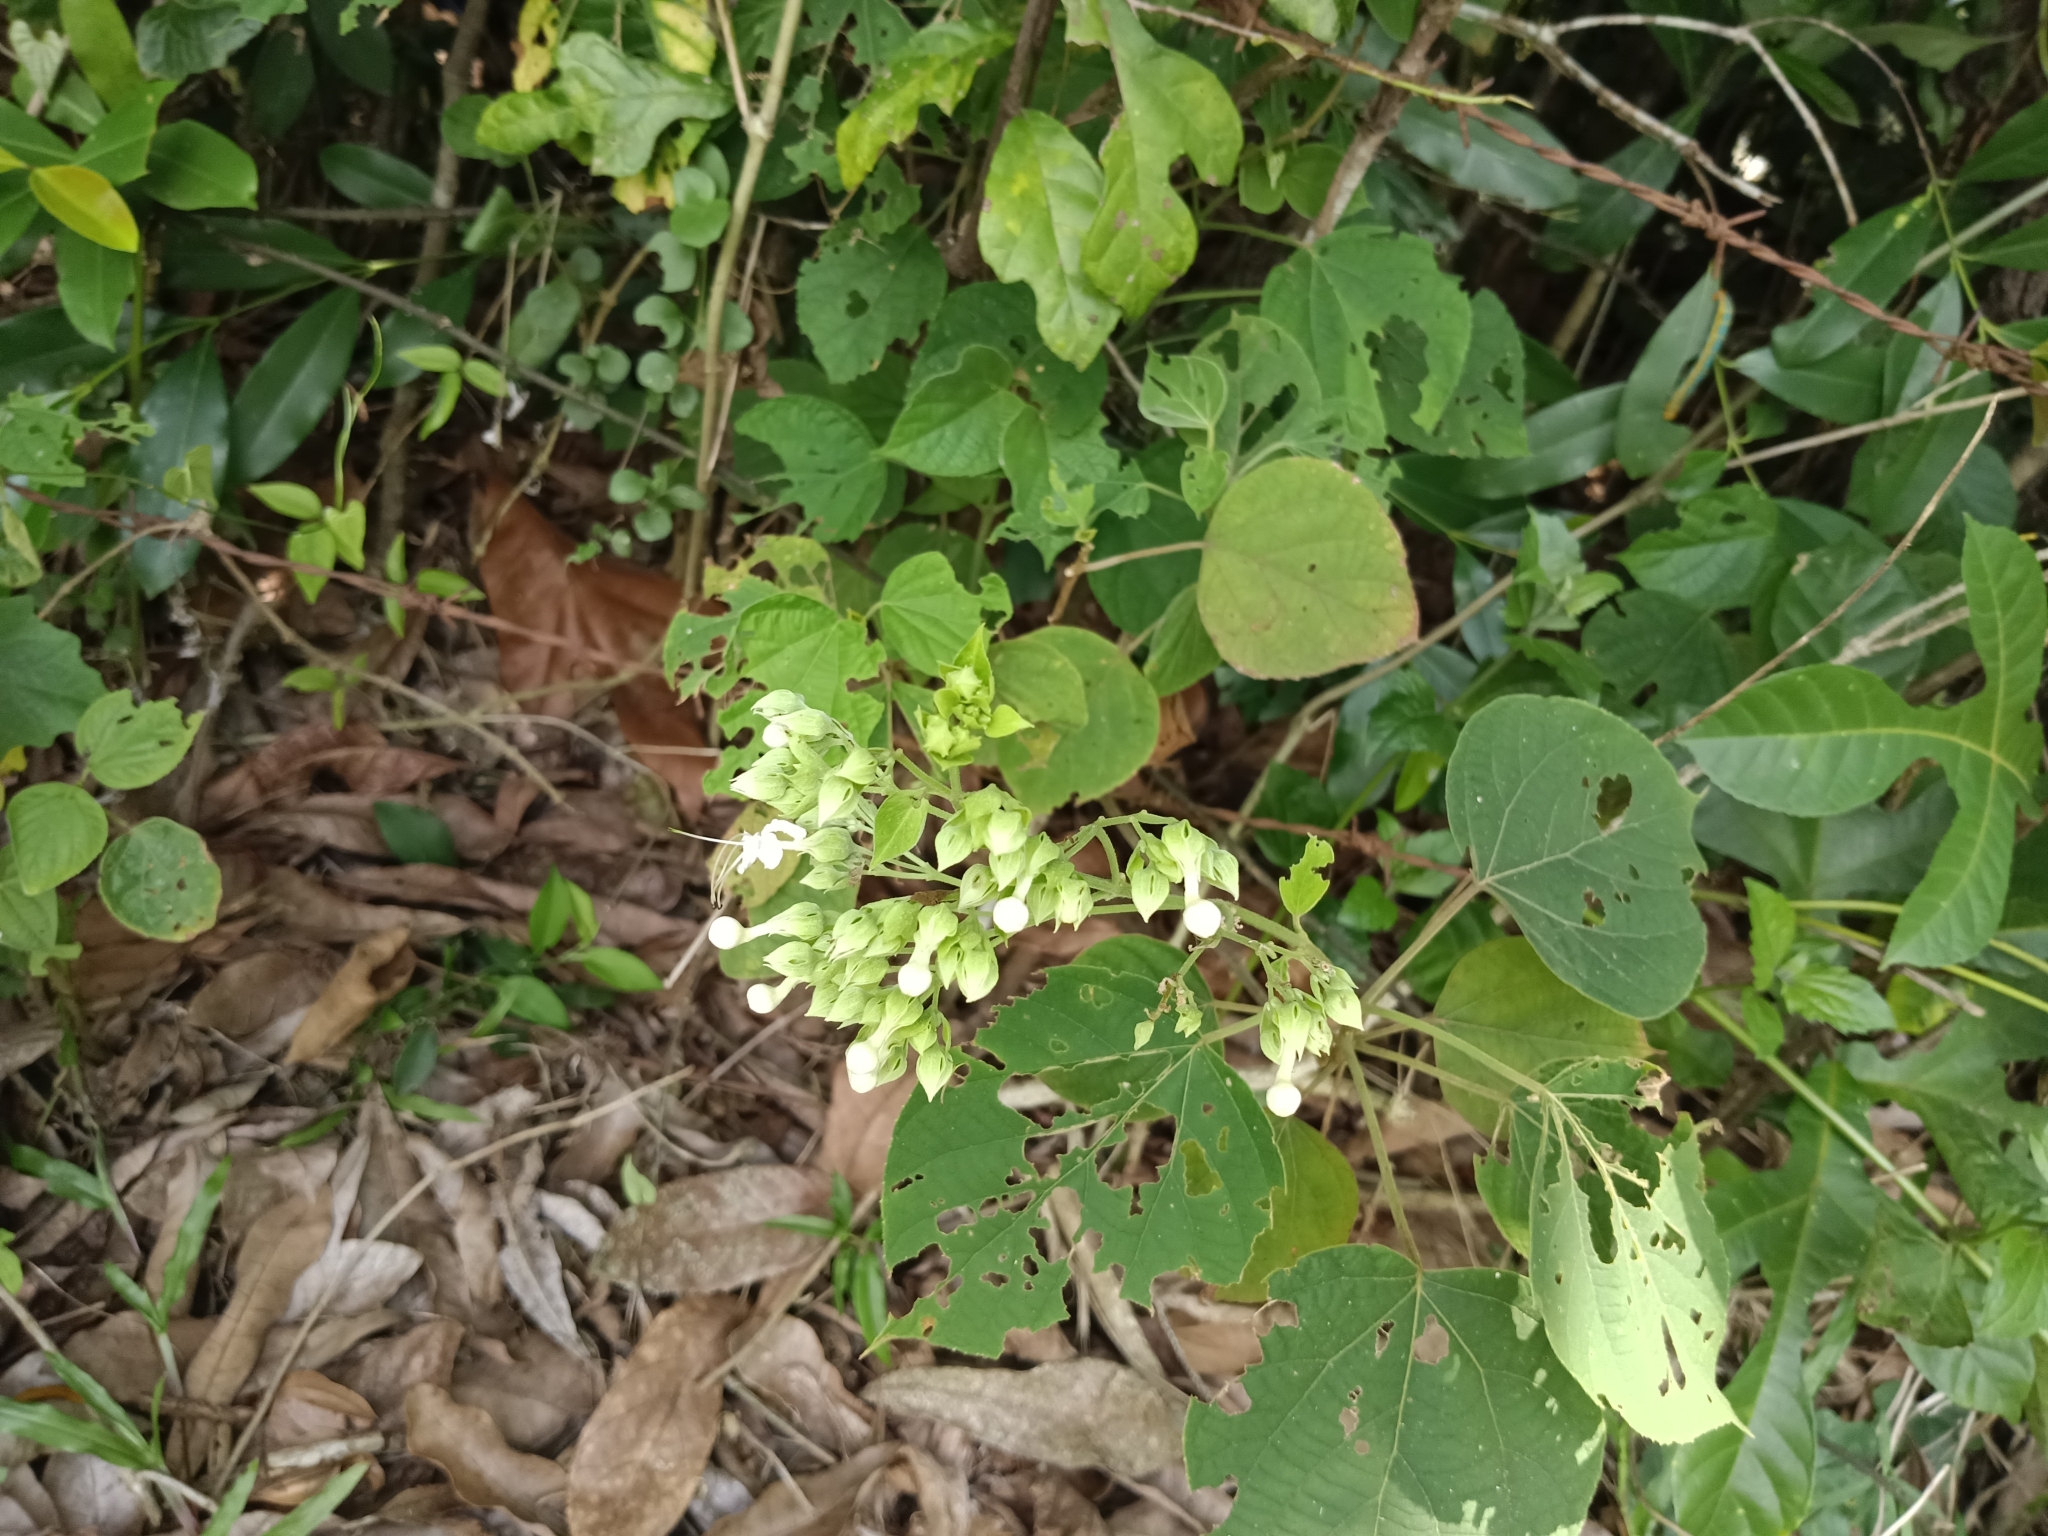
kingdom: Plantae
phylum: Tracheophyta
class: Magnoliopsida
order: Lamiales
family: Lamiaceae
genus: Clerodendrum
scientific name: Clerodendrum infortunatum
